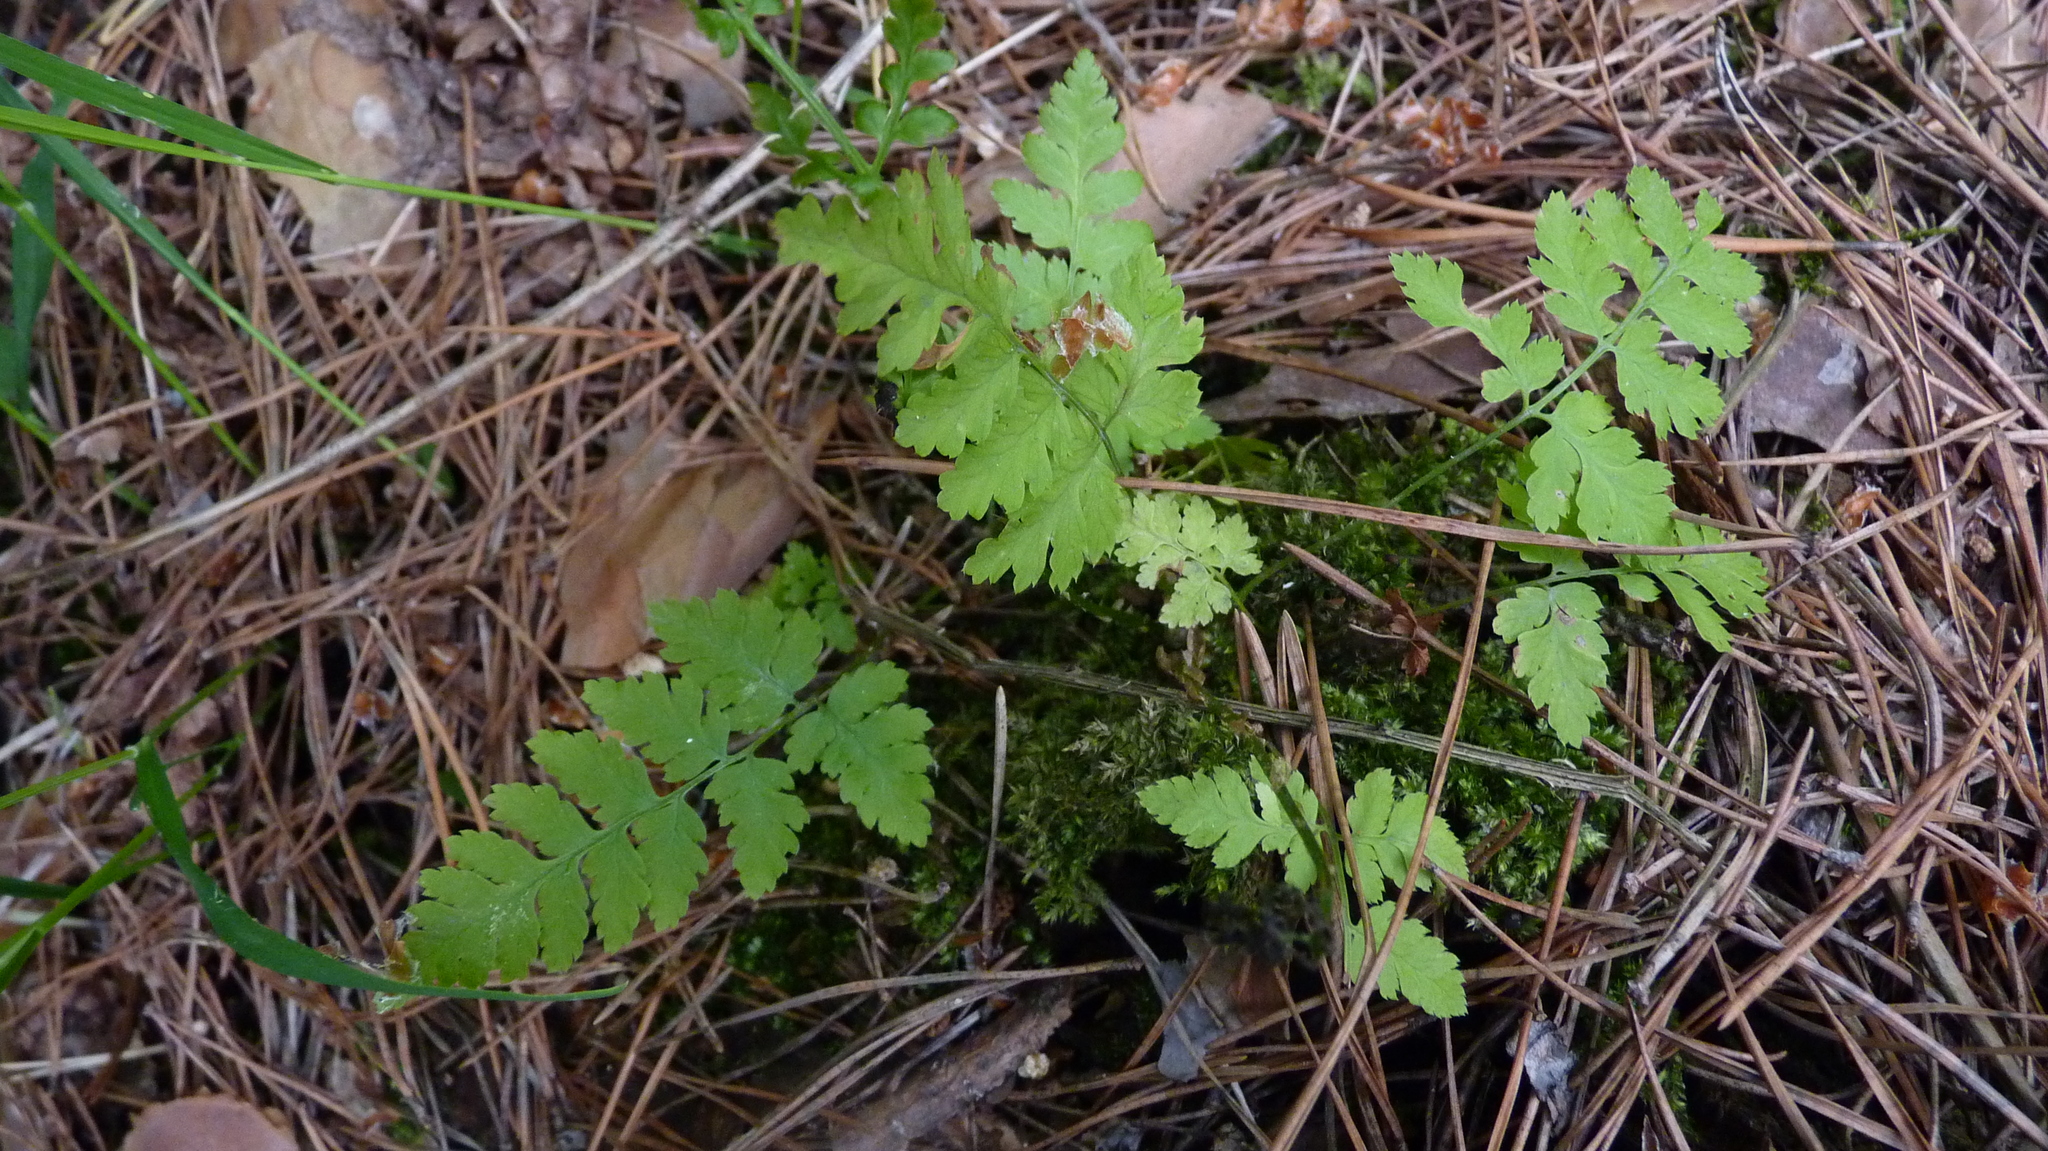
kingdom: Plantae
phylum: Tracheophyta
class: Polypodiopsida
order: Polypodiales
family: Dryopteridaceae
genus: Dryopteris
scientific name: Dryopteris carthusiana
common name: Narrow buckler-fern
